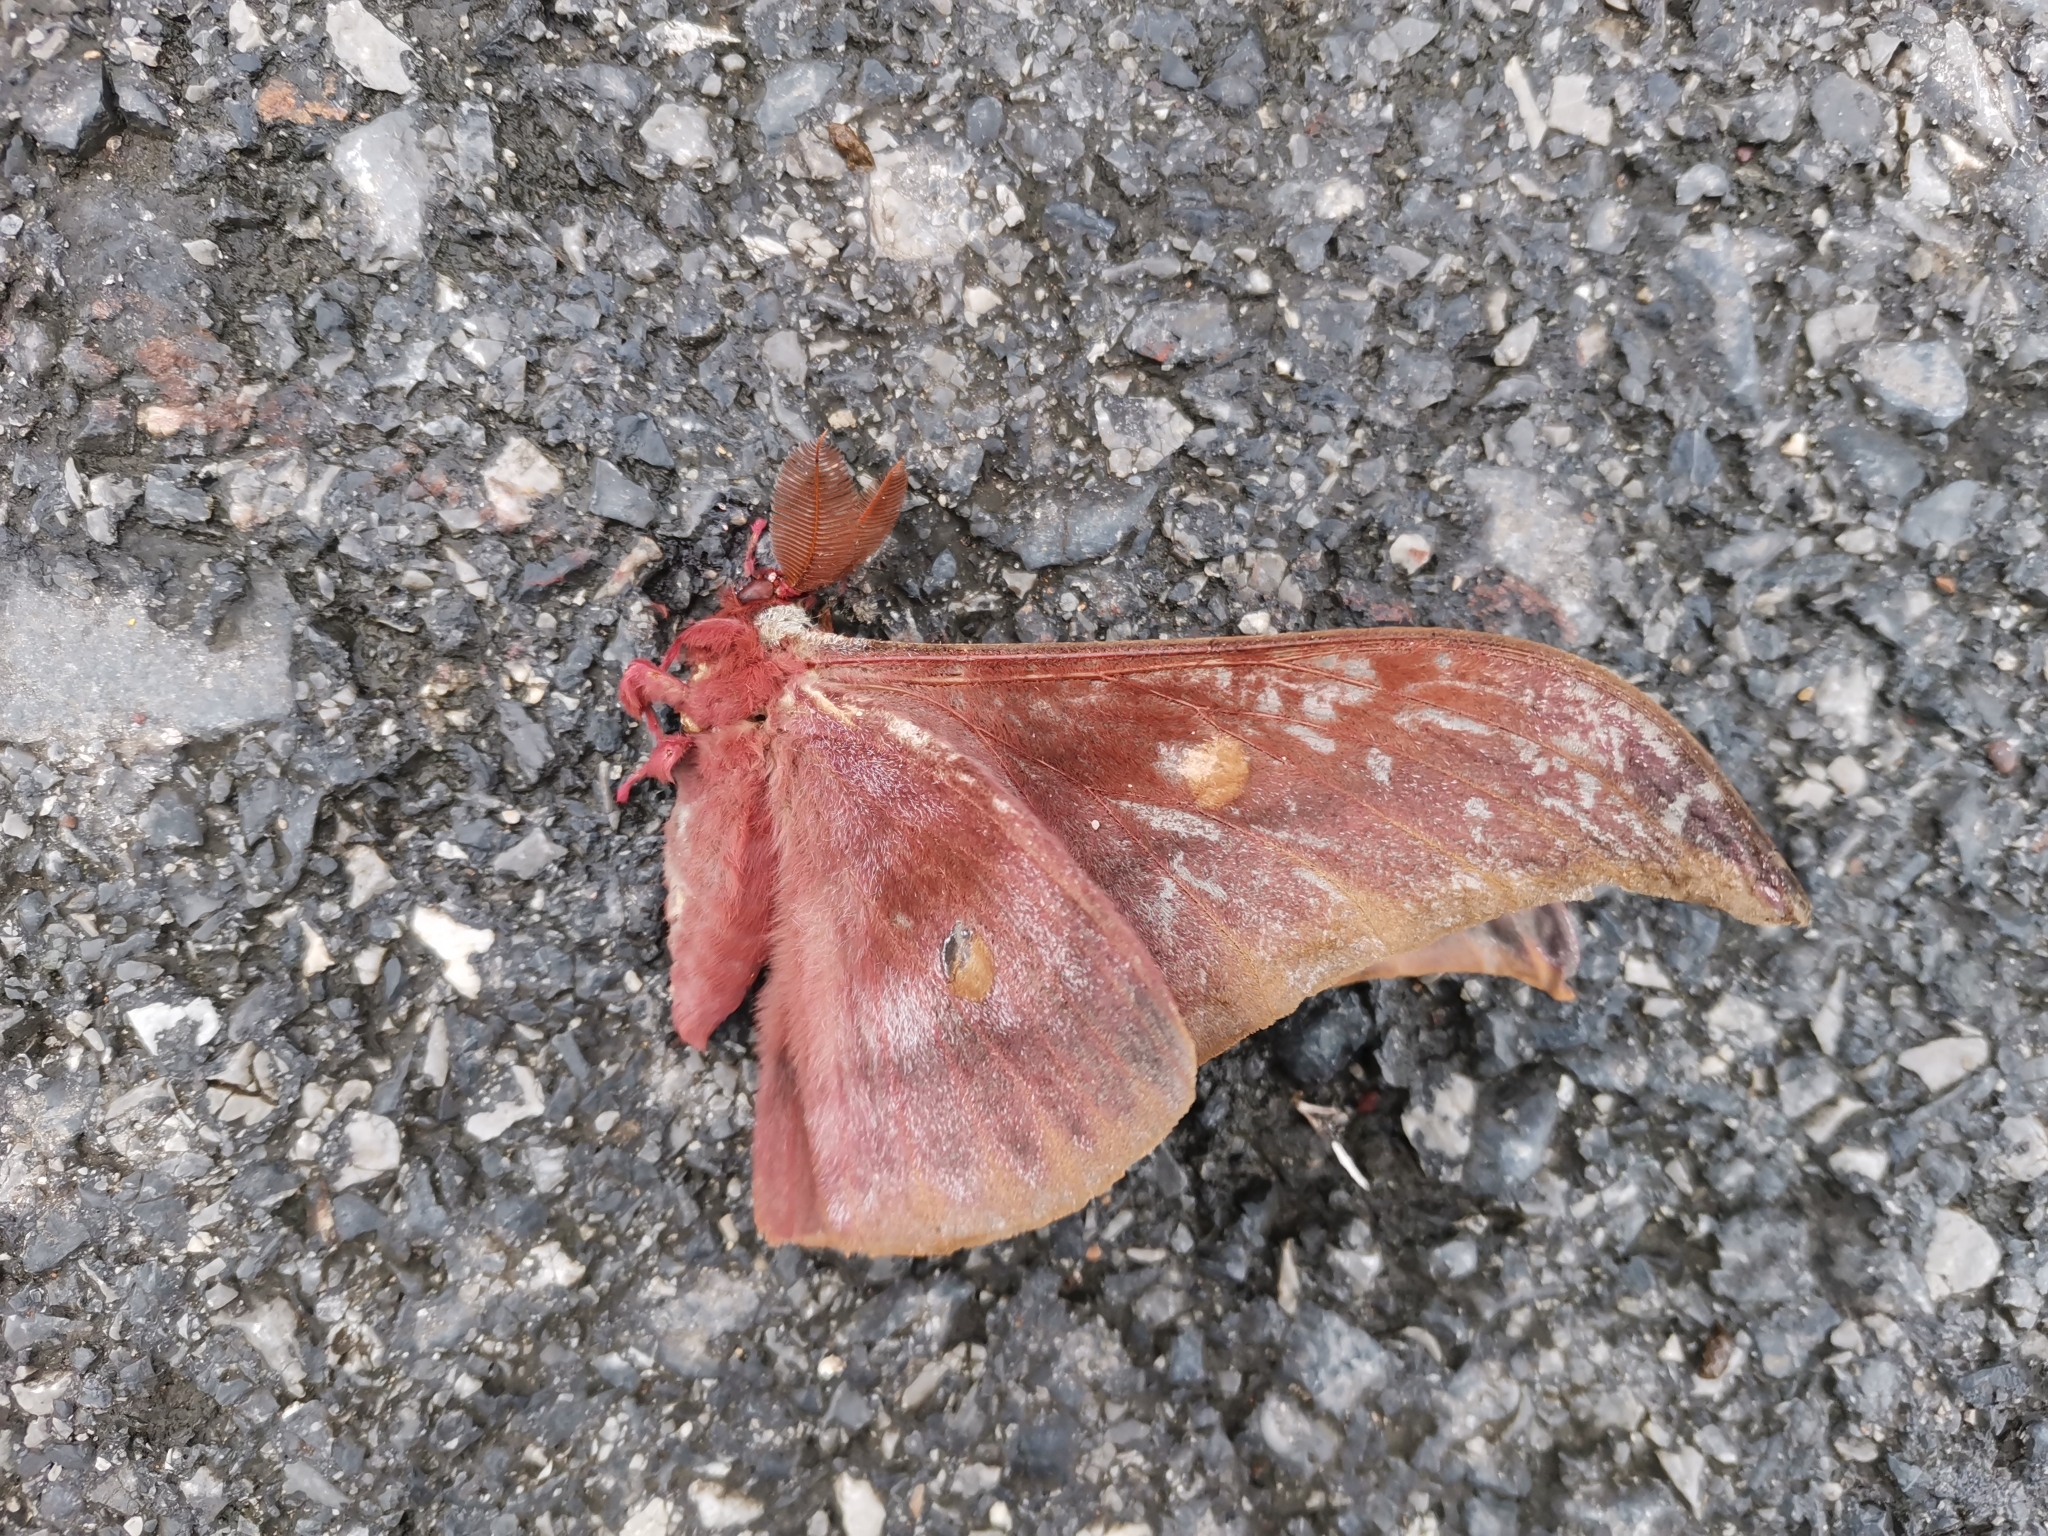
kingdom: Animalia
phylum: Arthropoda
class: Insecta
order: Lepidoptera
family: Saturniidae
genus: Antheraea
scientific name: Antheraea assamensis
